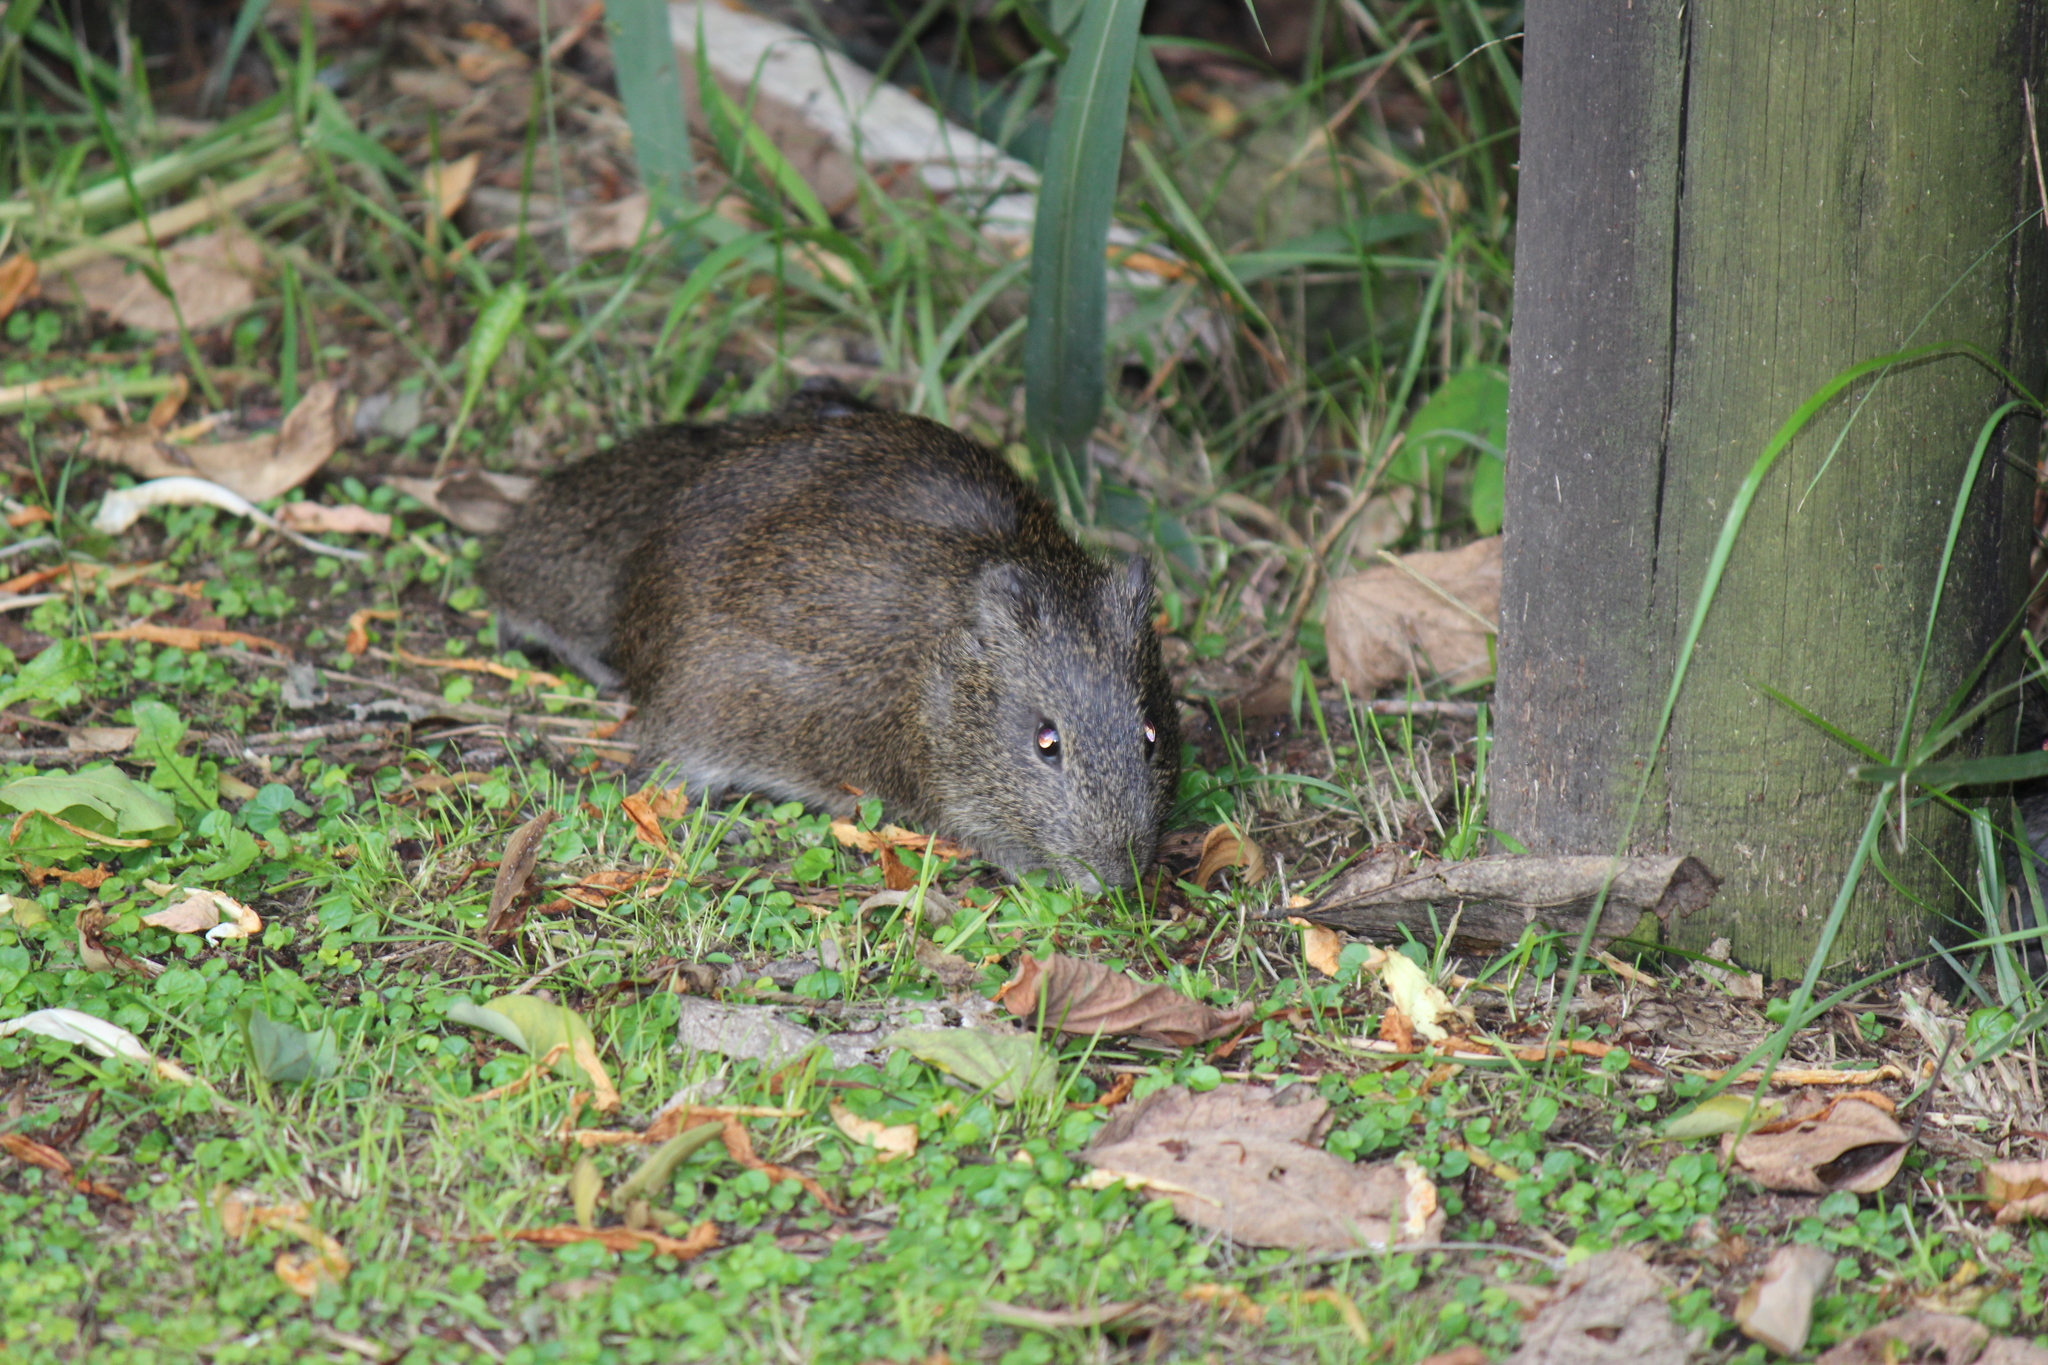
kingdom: Animalia
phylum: Chordata
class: Mammalia
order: Rodentia
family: Caviidae
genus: Cavia
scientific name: Cavia aperea
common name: Brazilian guinea pig
